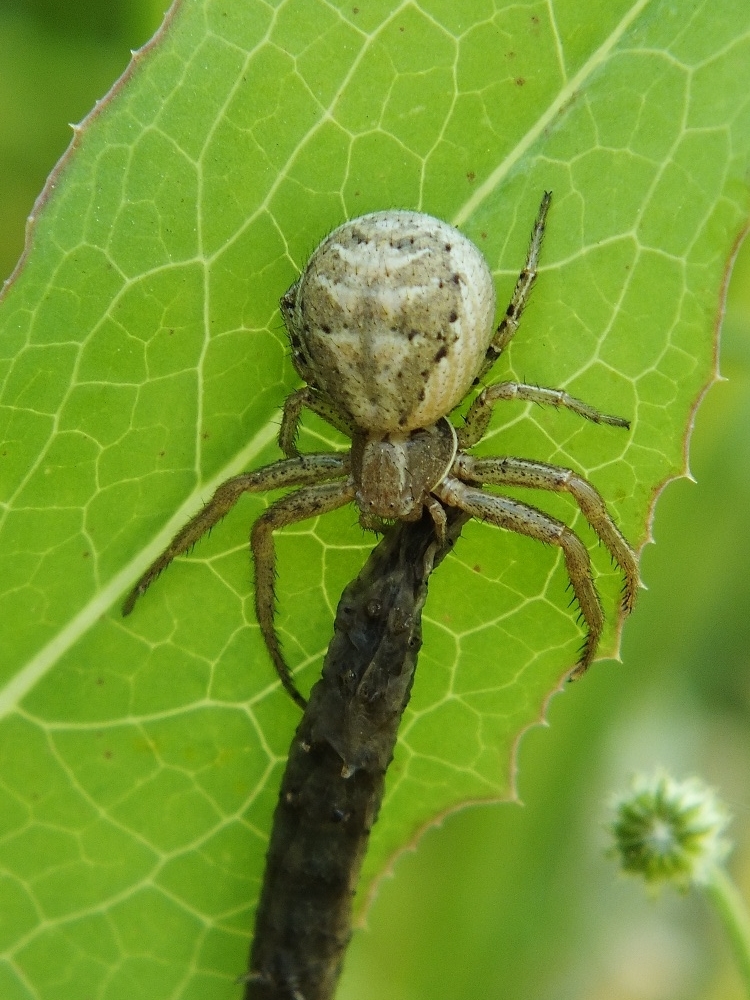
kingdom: Animalia
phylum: Arthropoda
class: Arachnida
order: Araneae
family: Thomisidae
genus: Xysticus
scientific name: Xysticus cristatus
